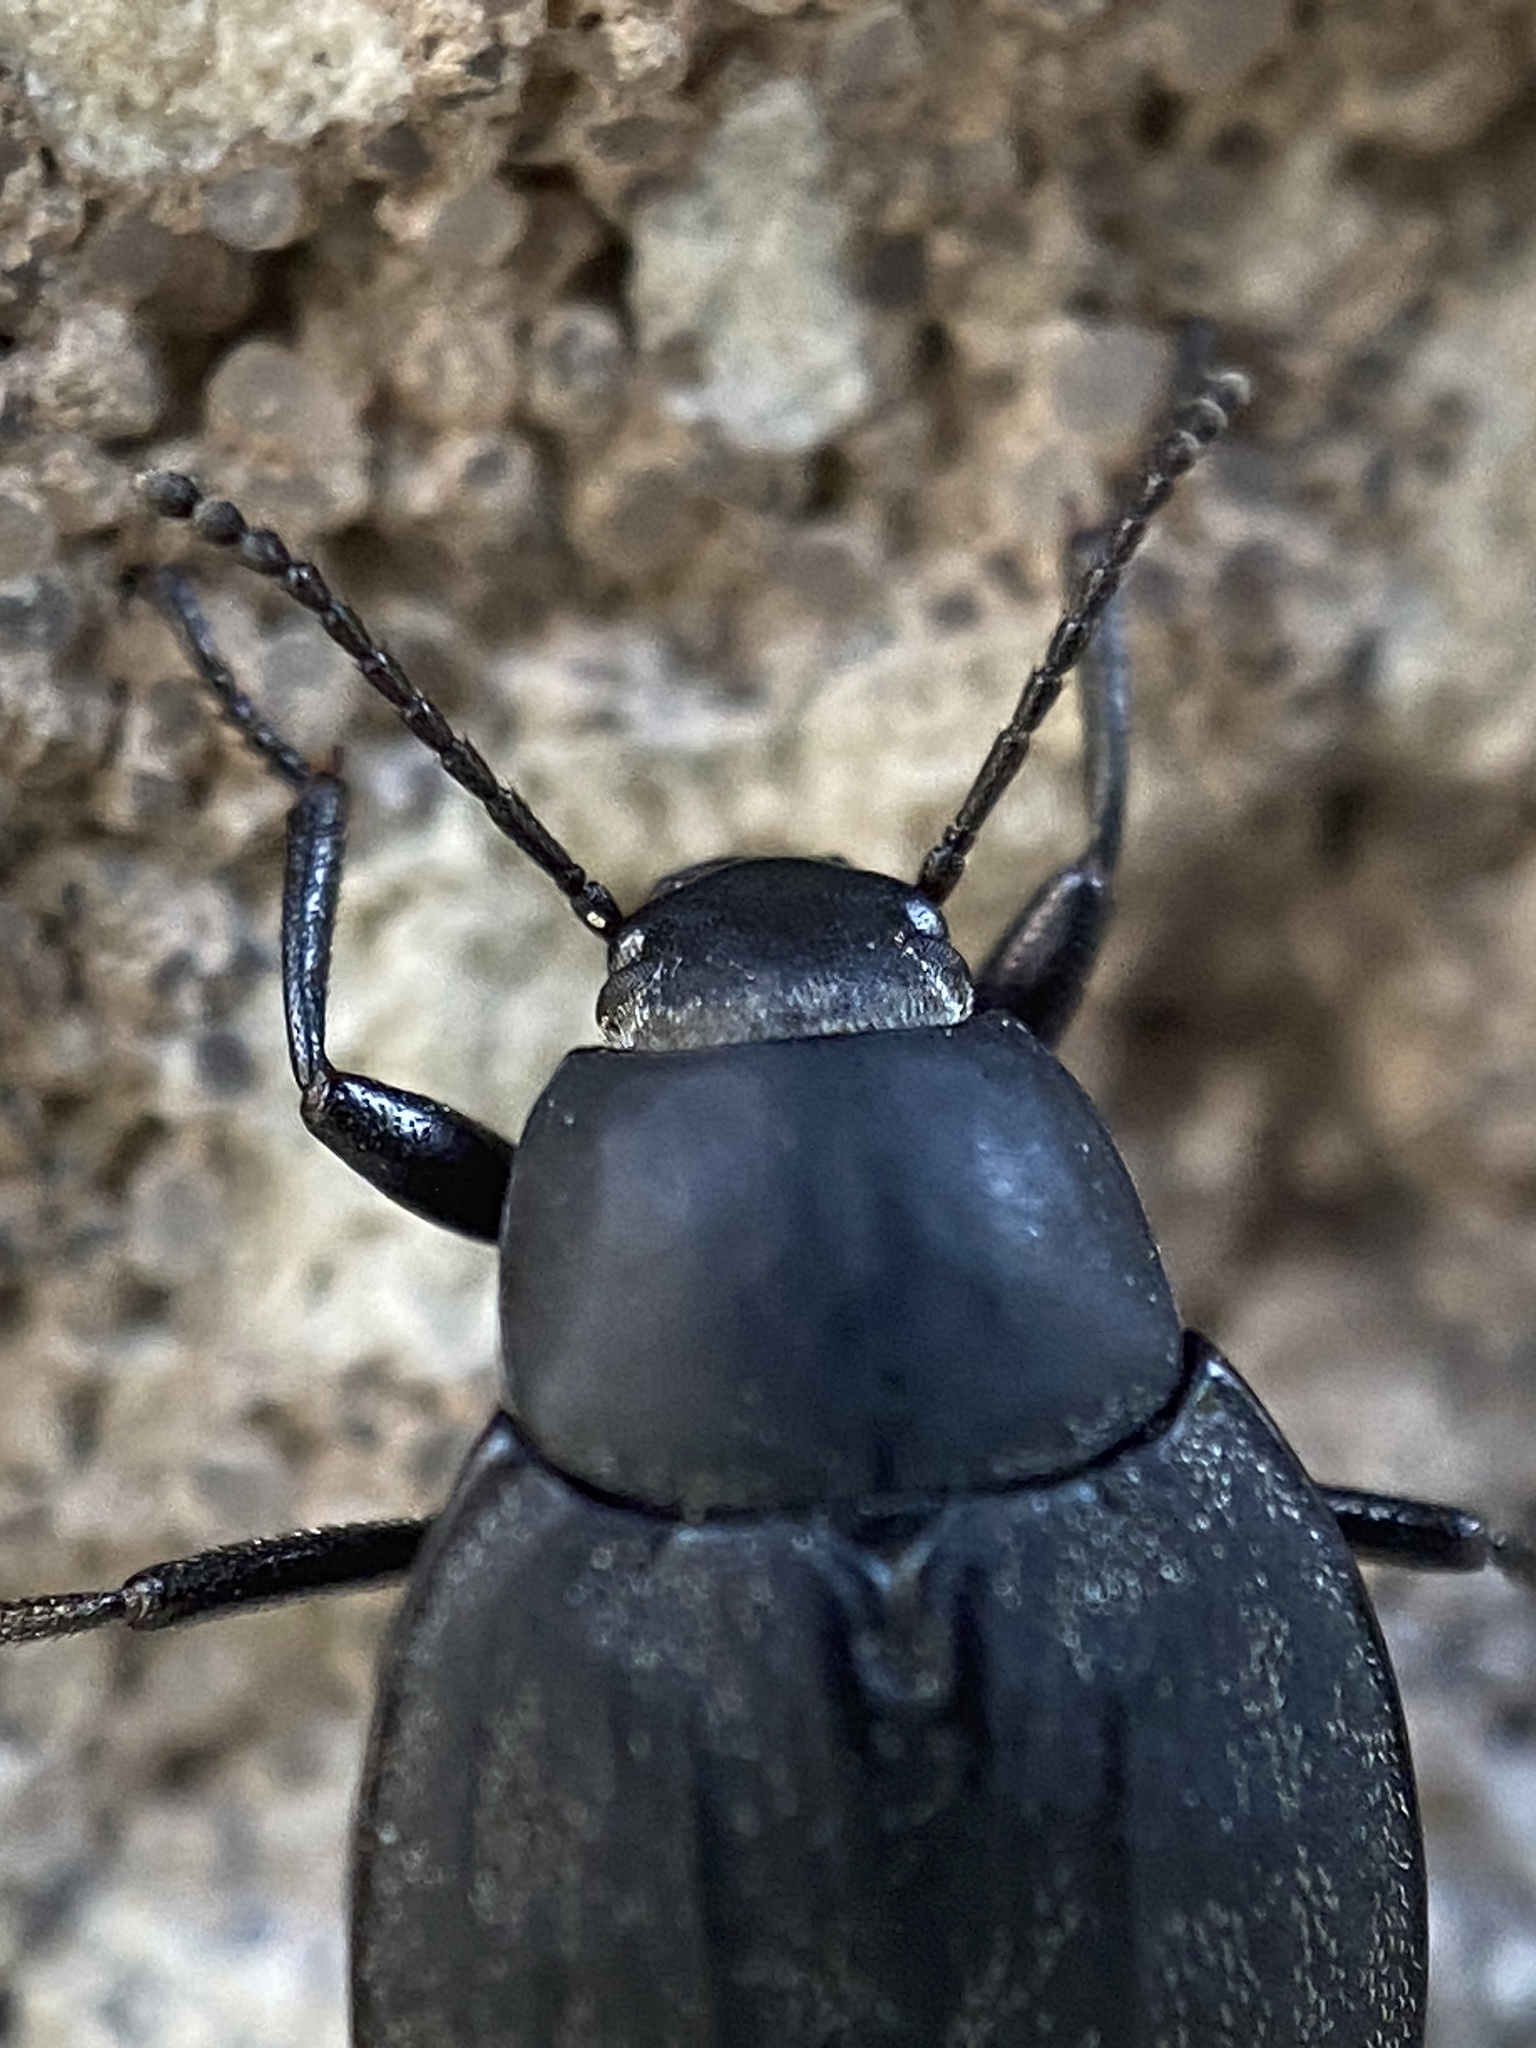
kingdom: Animalia
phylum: Arthropoda
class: Insecta
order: Coleoptera
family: Tenebrionidae
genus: Eleodes
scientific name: Eleodes opaca
